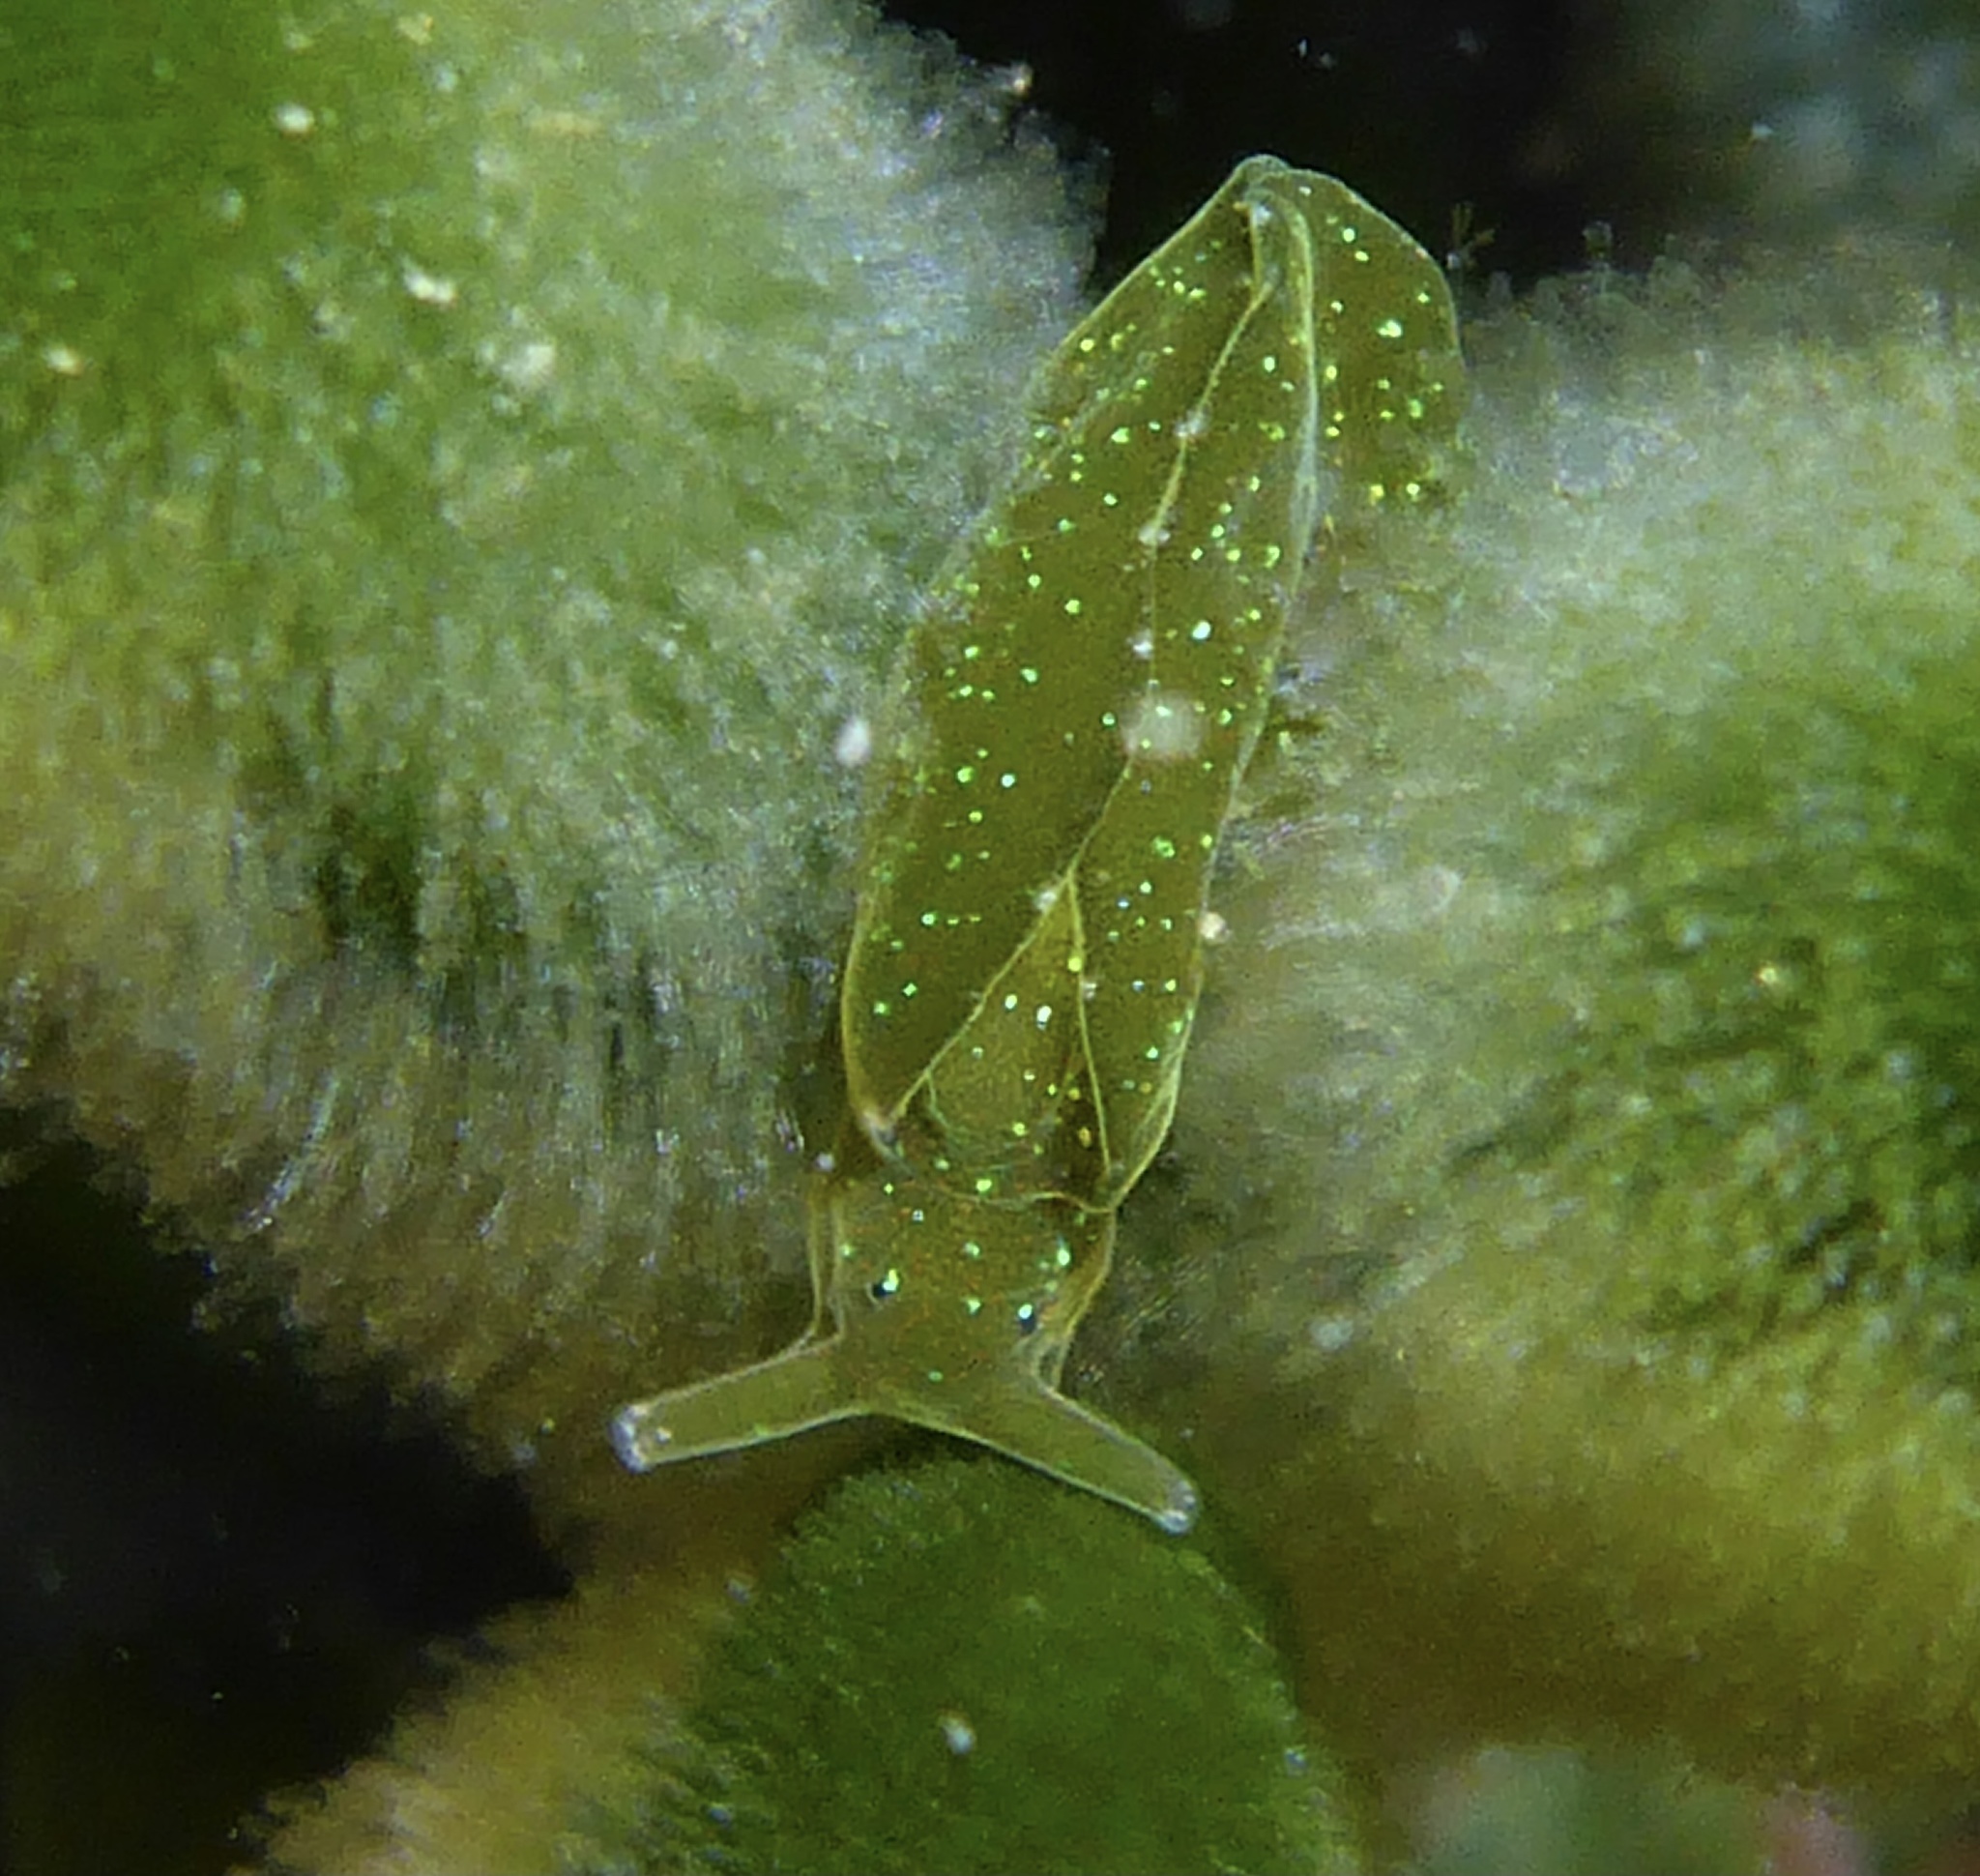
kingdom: Animalia
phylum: Mollusca
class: Gastropoda
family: Plakobranchidae
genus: Elysia
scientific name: Elysia hedgpethi
